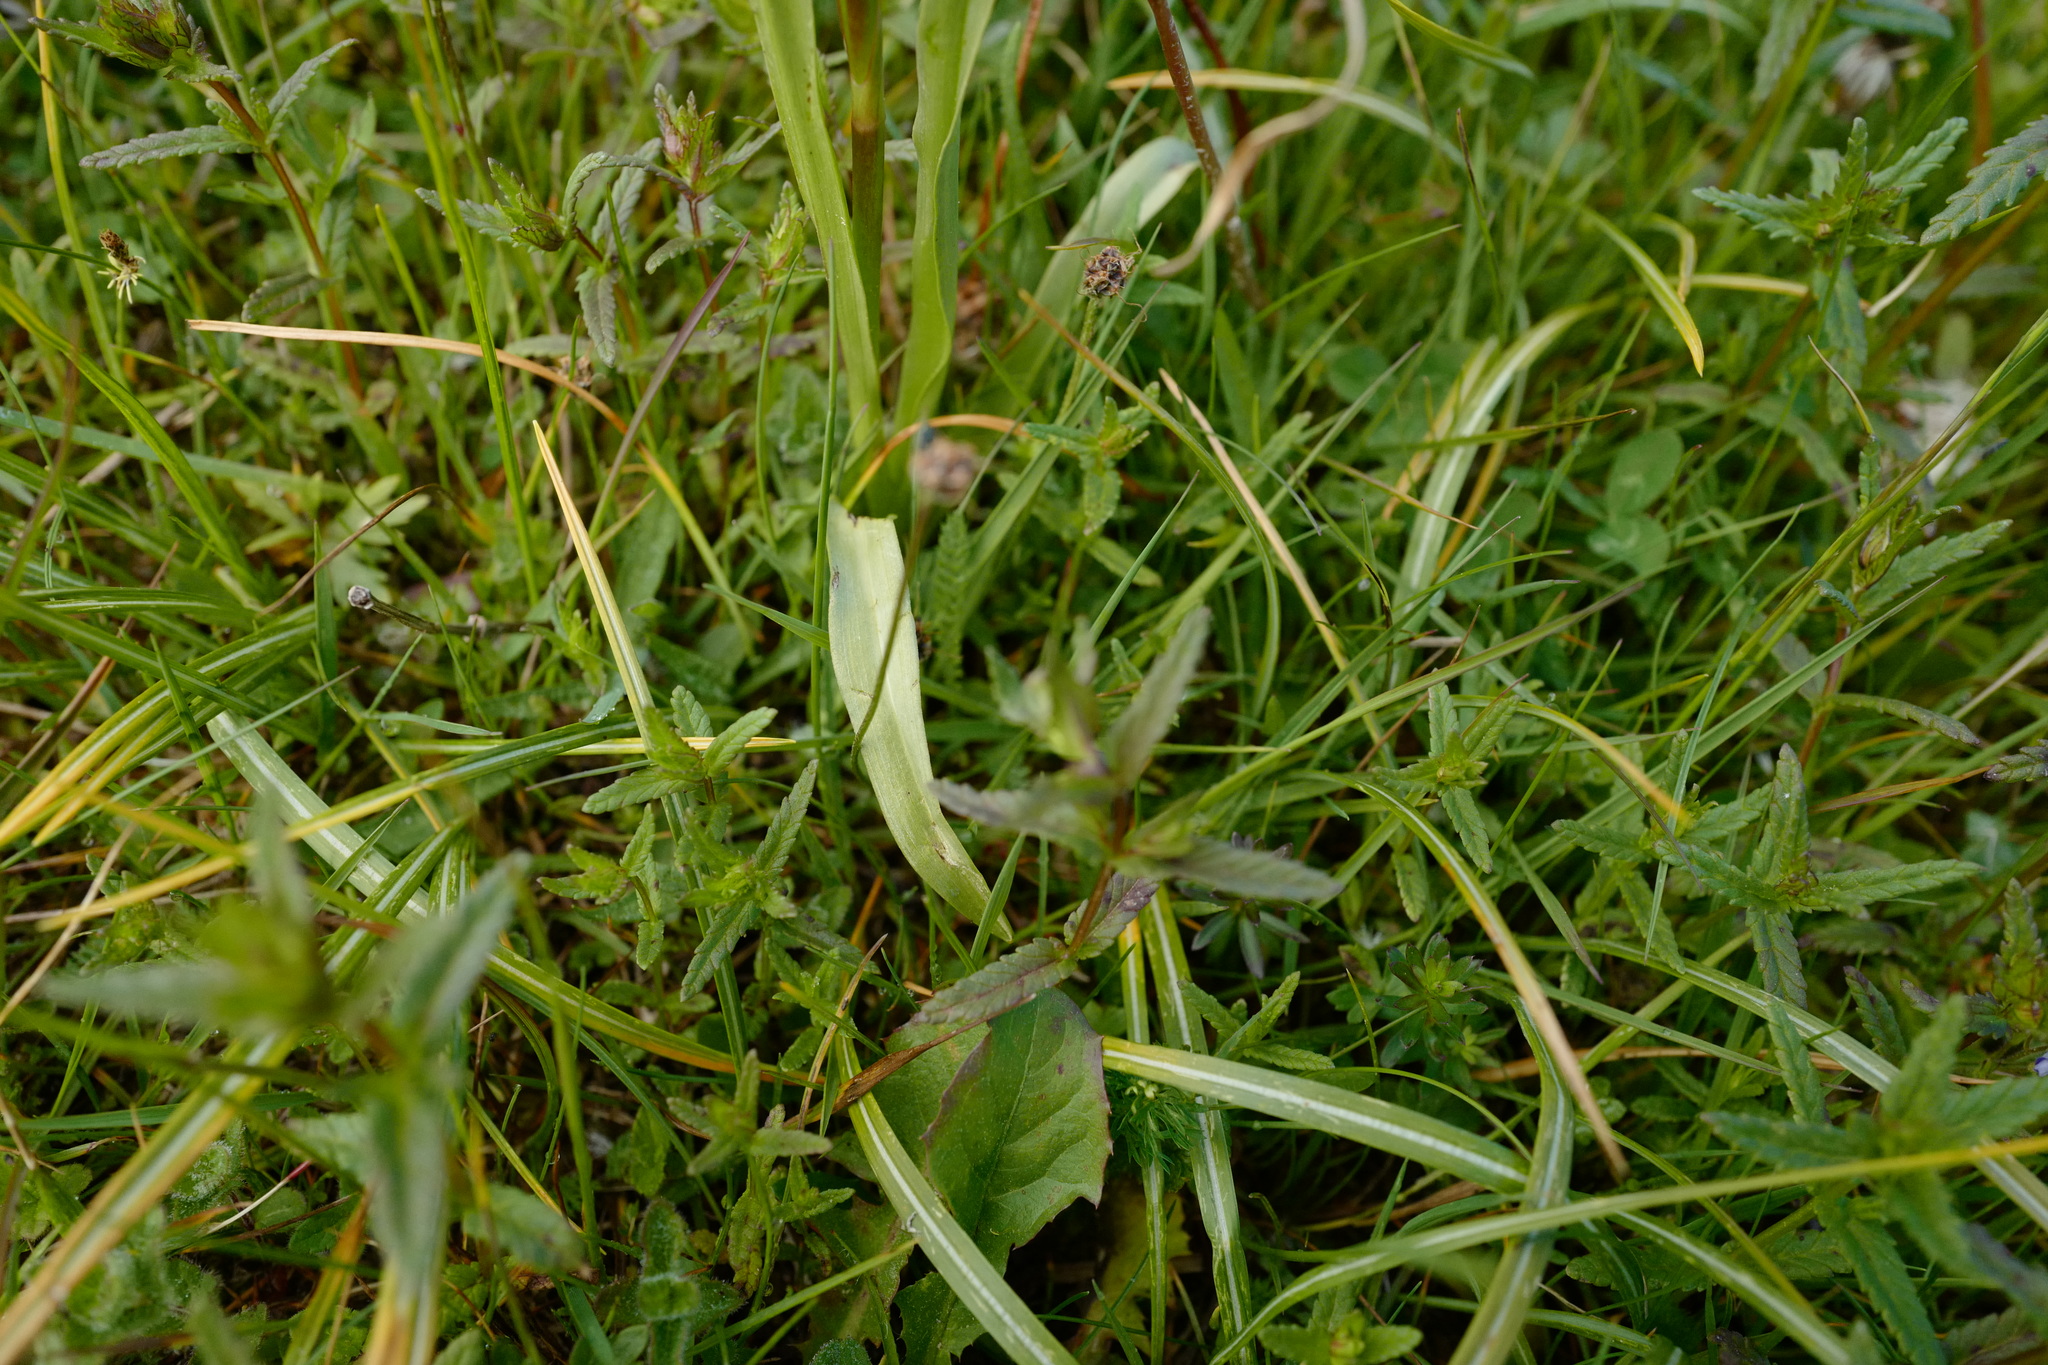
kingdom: Plantae
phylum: Tracheophyta
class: Liliopsida
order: Asparagales
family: Orchidaceae
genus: Gymnadenia
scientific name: Gymnadenia conopsea
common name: Fragrant orchid
